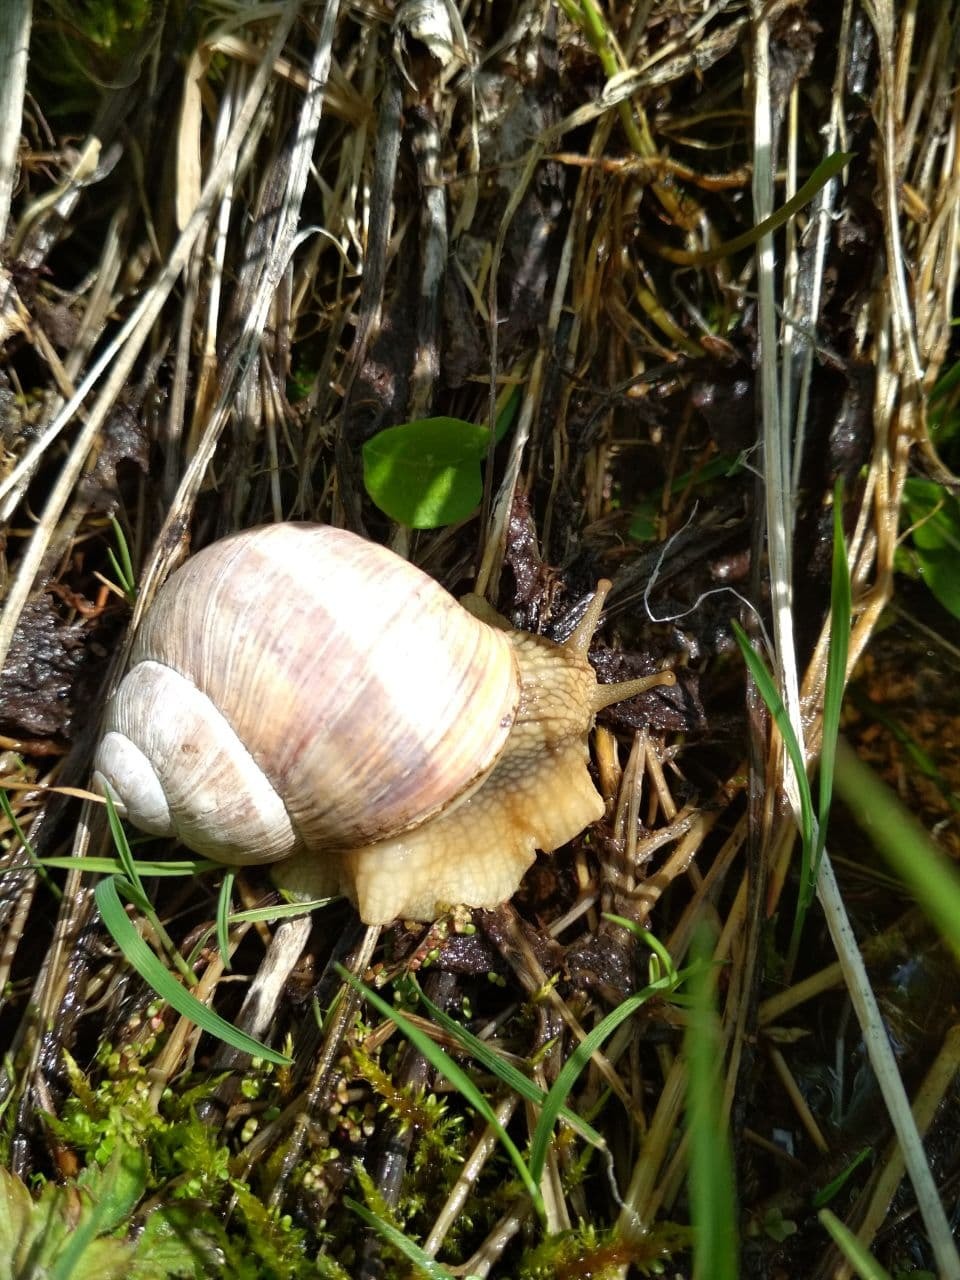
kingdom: Animalia
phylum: Mollusca
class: Gastropoda
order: Stylommatophora
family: Helicidae
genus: Helix
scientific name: Helix pomatia
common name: Roman snail
